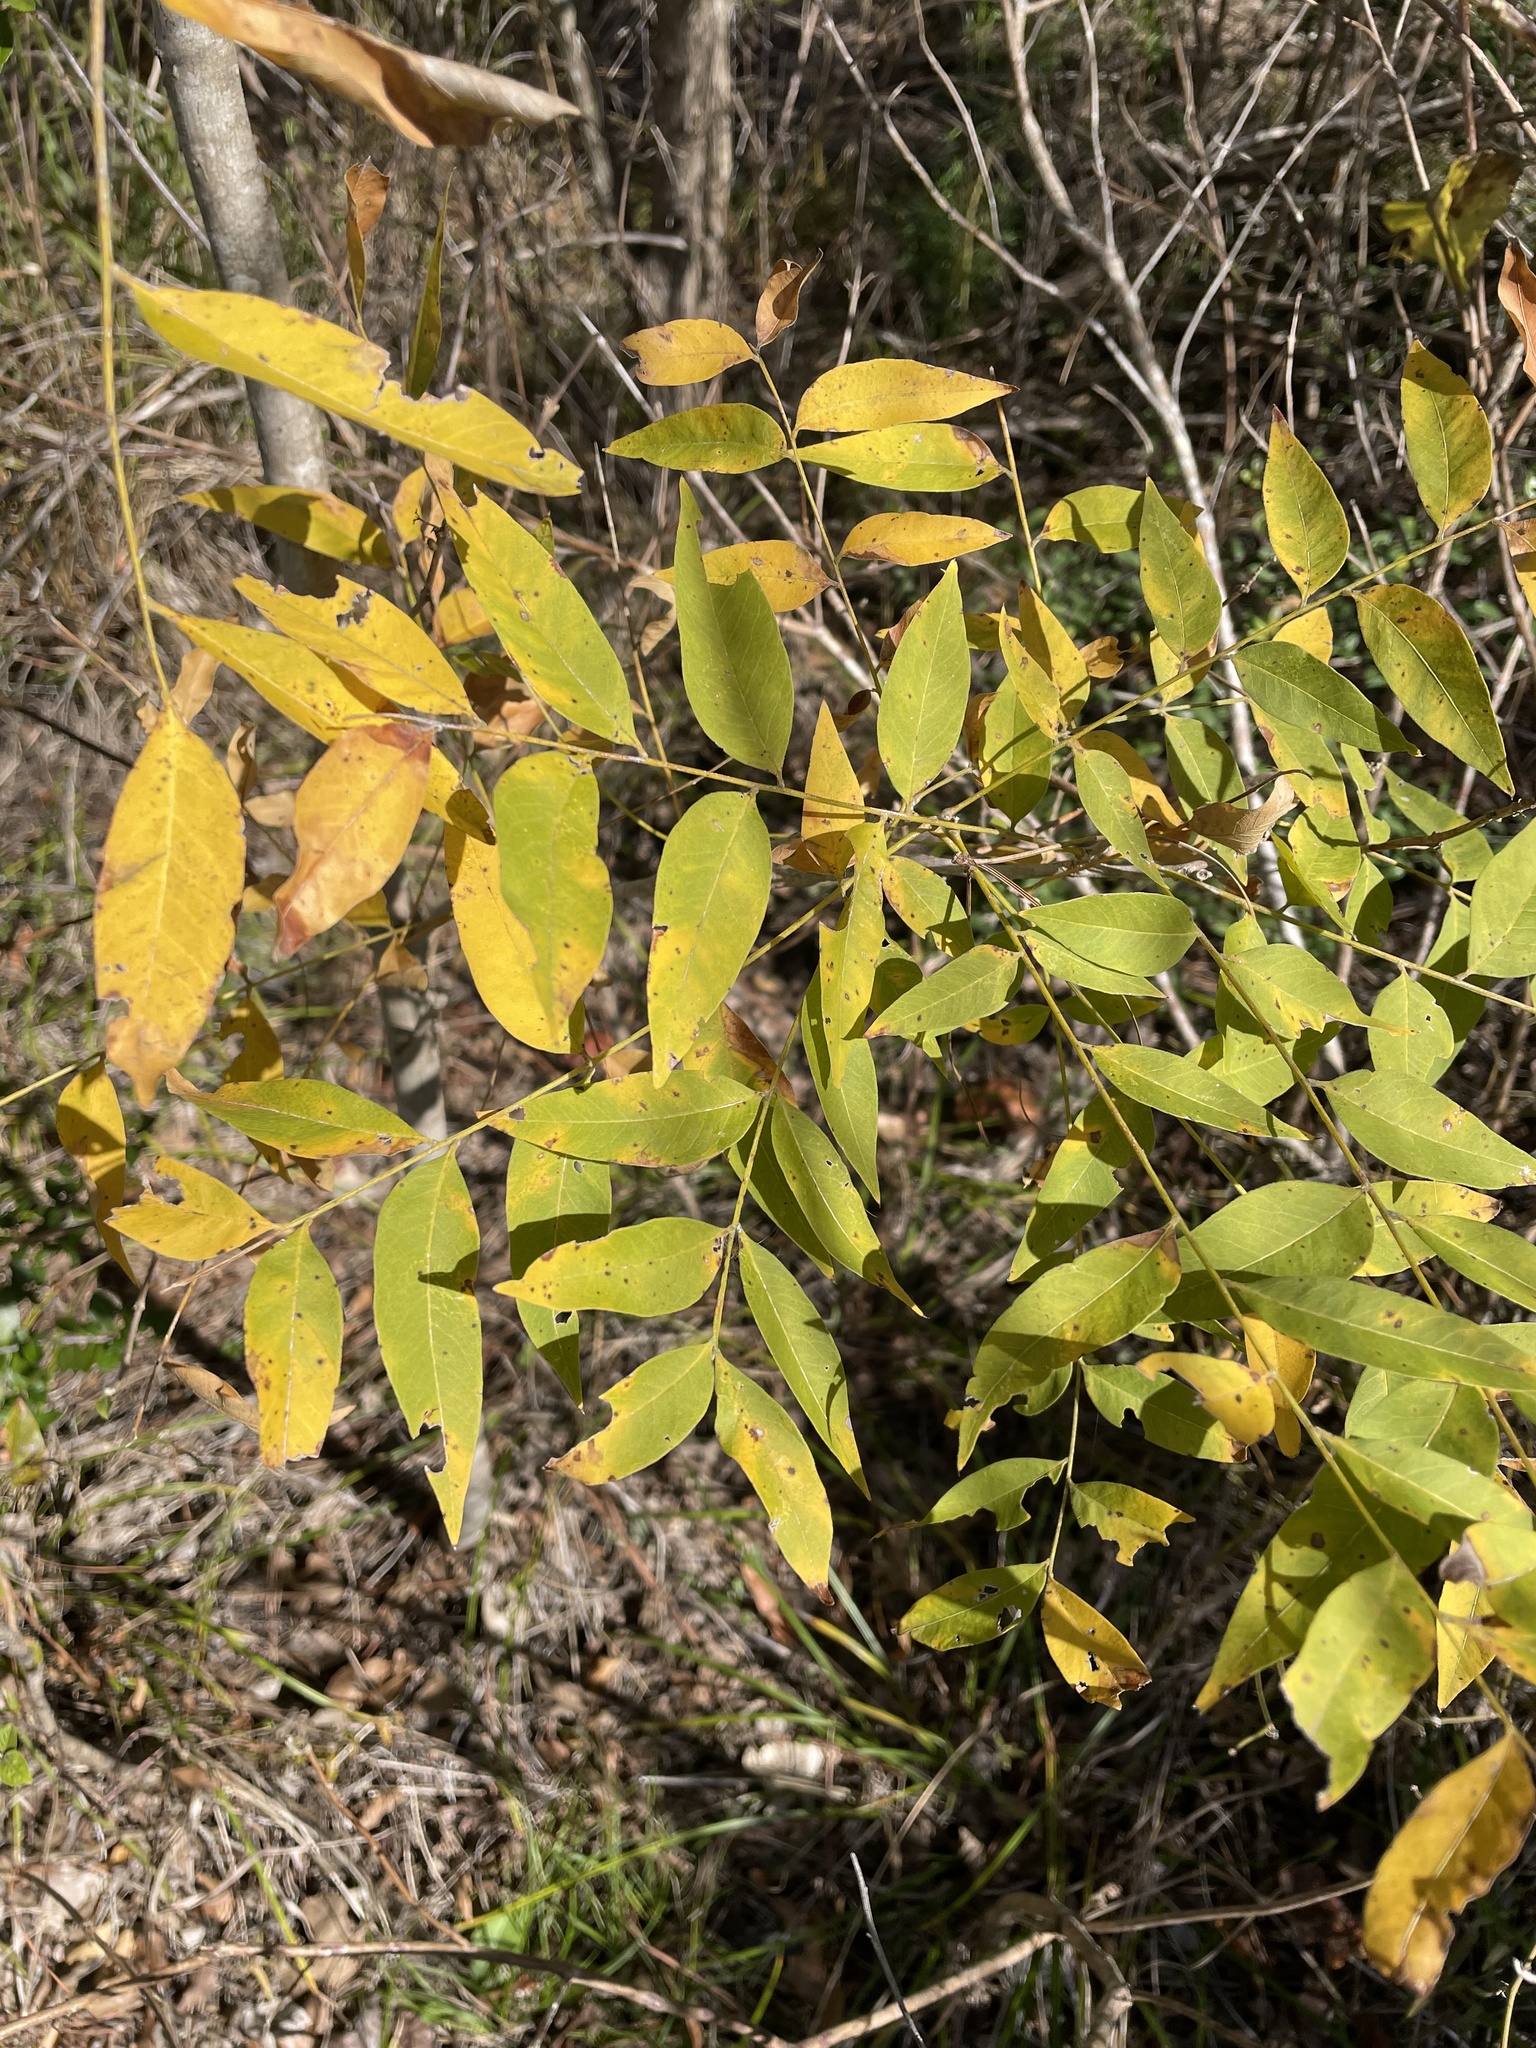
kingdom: Plantae
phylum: Tracheophyta
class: Magnoliopsida
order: Sapindales
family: Sapindaceae
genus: Sapindus
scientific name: Sapindus drummondii
